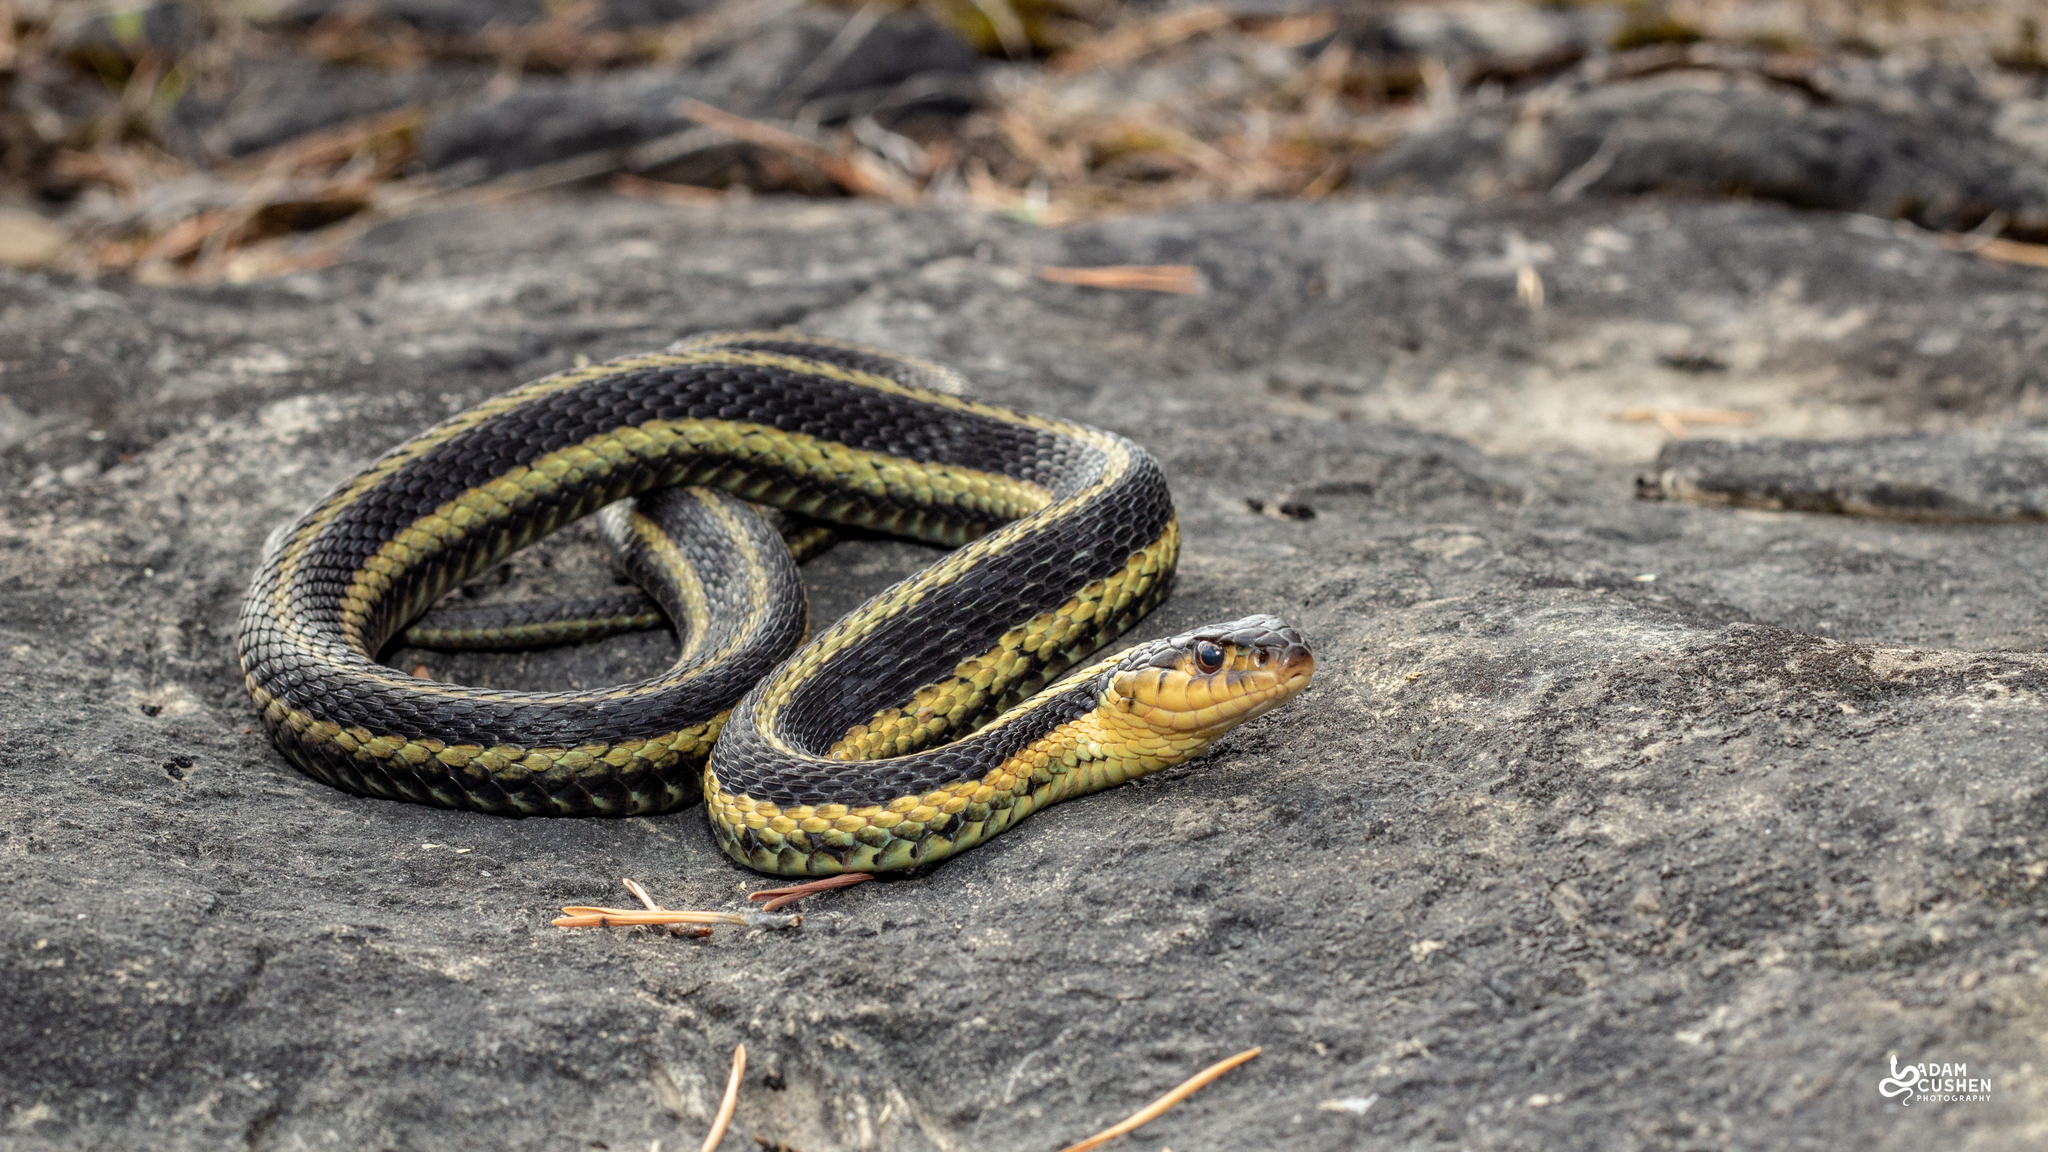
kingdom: Animalia
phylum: Chordata
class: Squamata
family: Colubridae
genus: Thamnophis
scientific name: Thamnophis sirtalis
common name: Common garter snake
